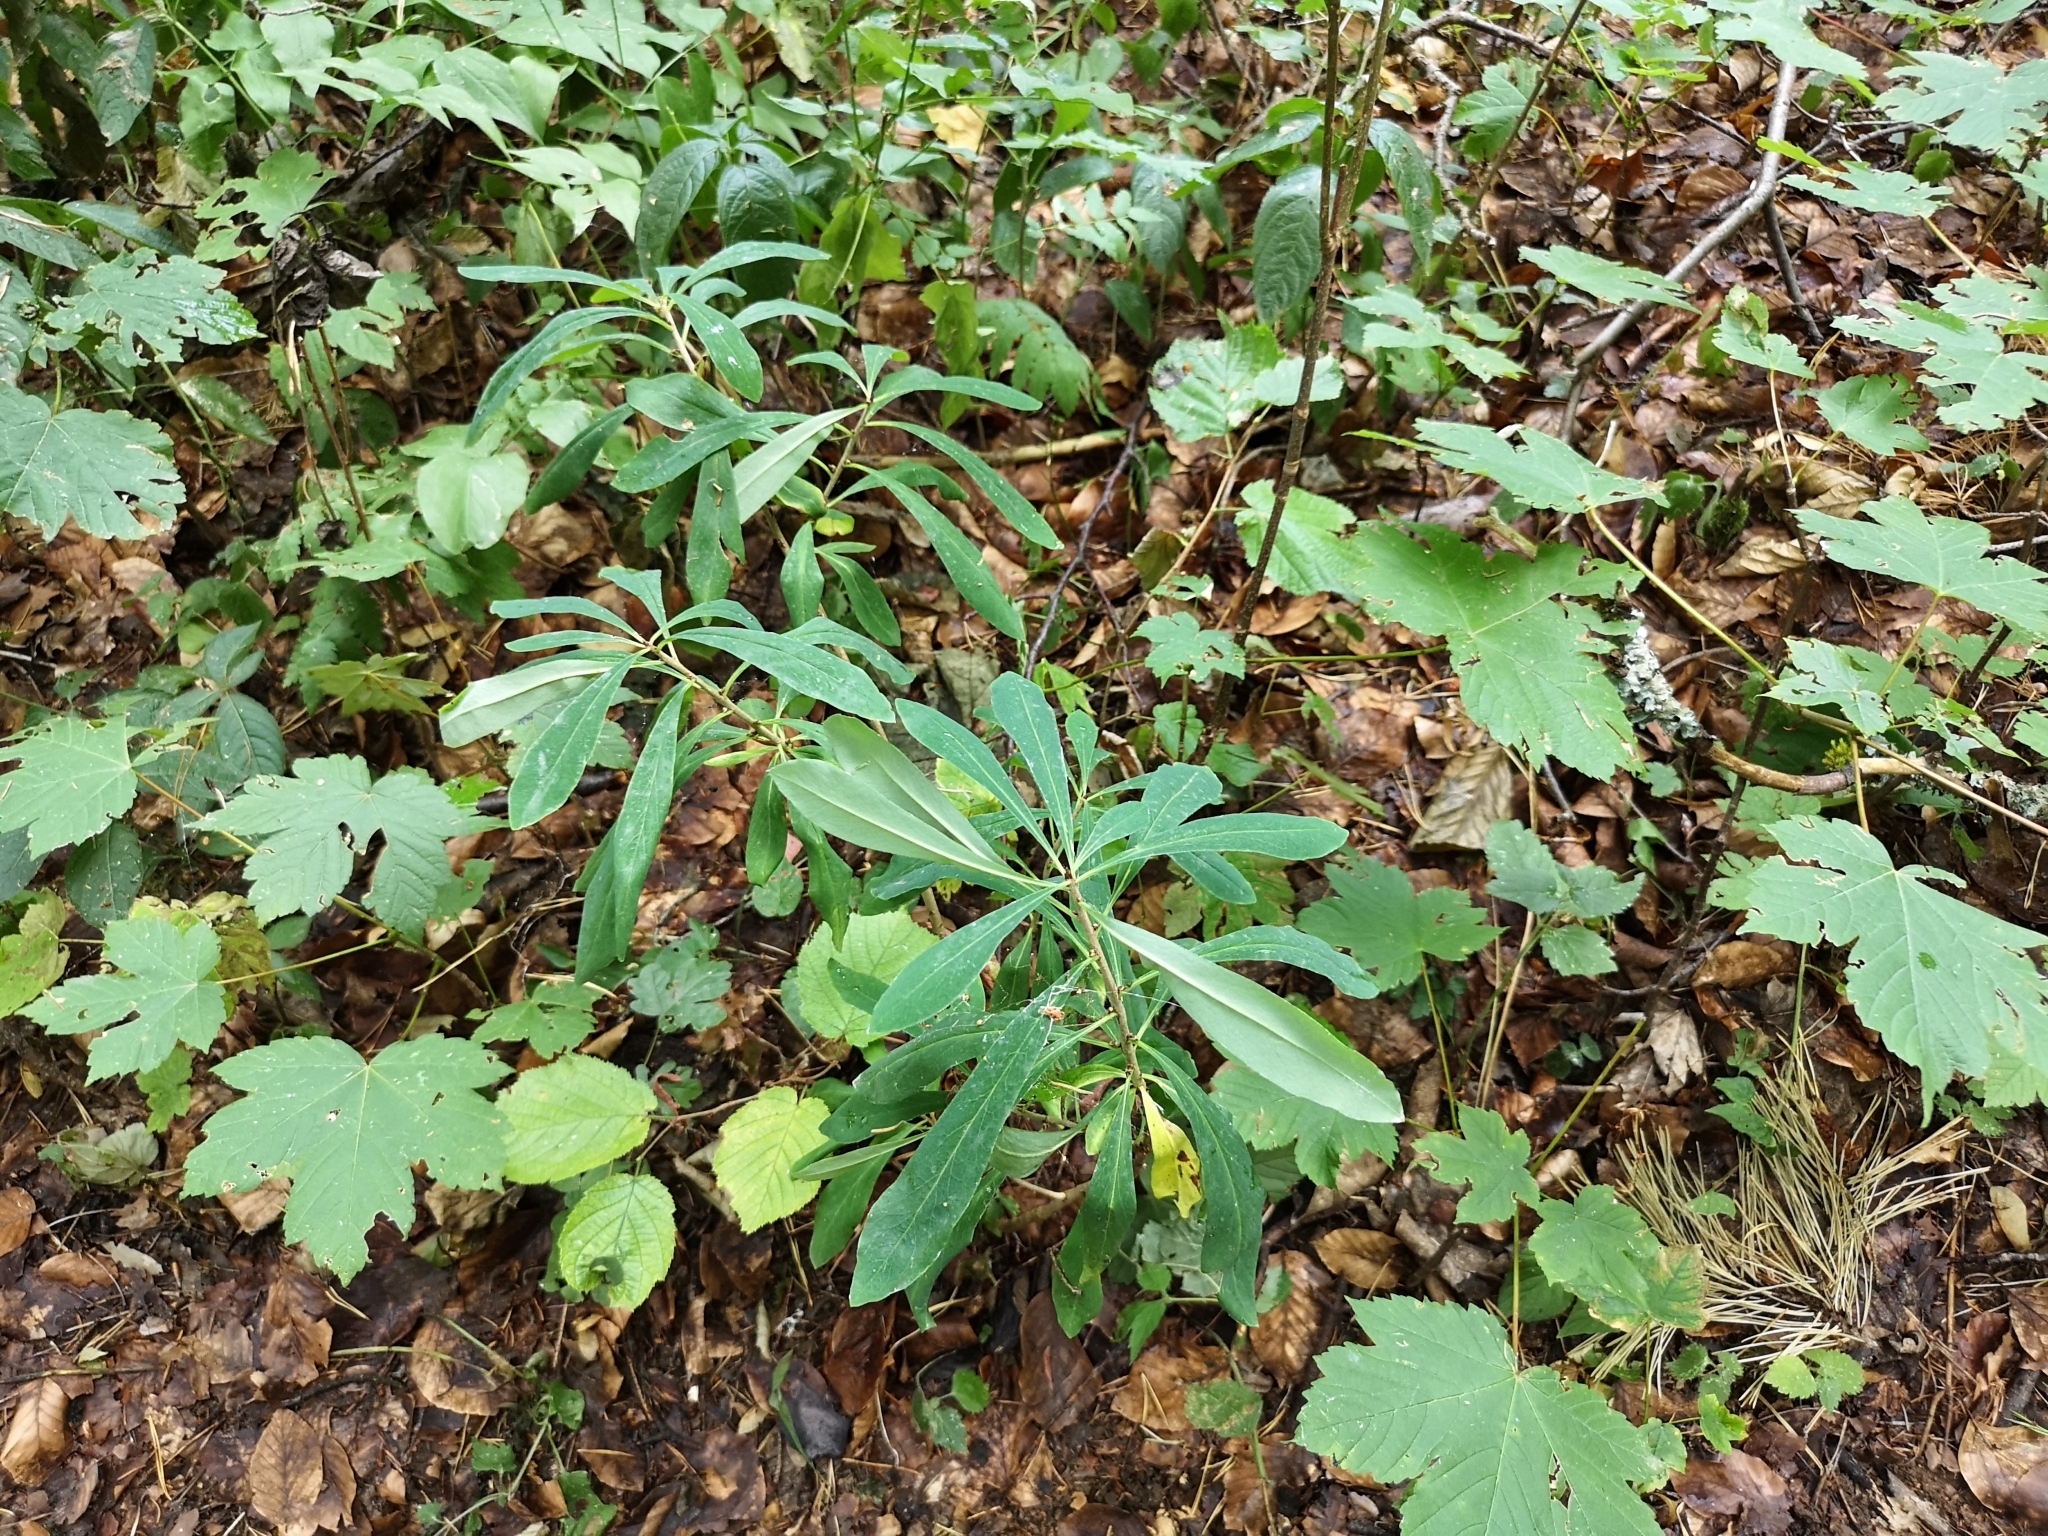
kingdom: Plantae
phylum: Tracheophyta
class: Magnoliopsida
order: Malpighiales
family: Euphorbiaceae
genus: Euphorbia
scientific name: Euphorbia amygdaloides
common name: Wood spurge
